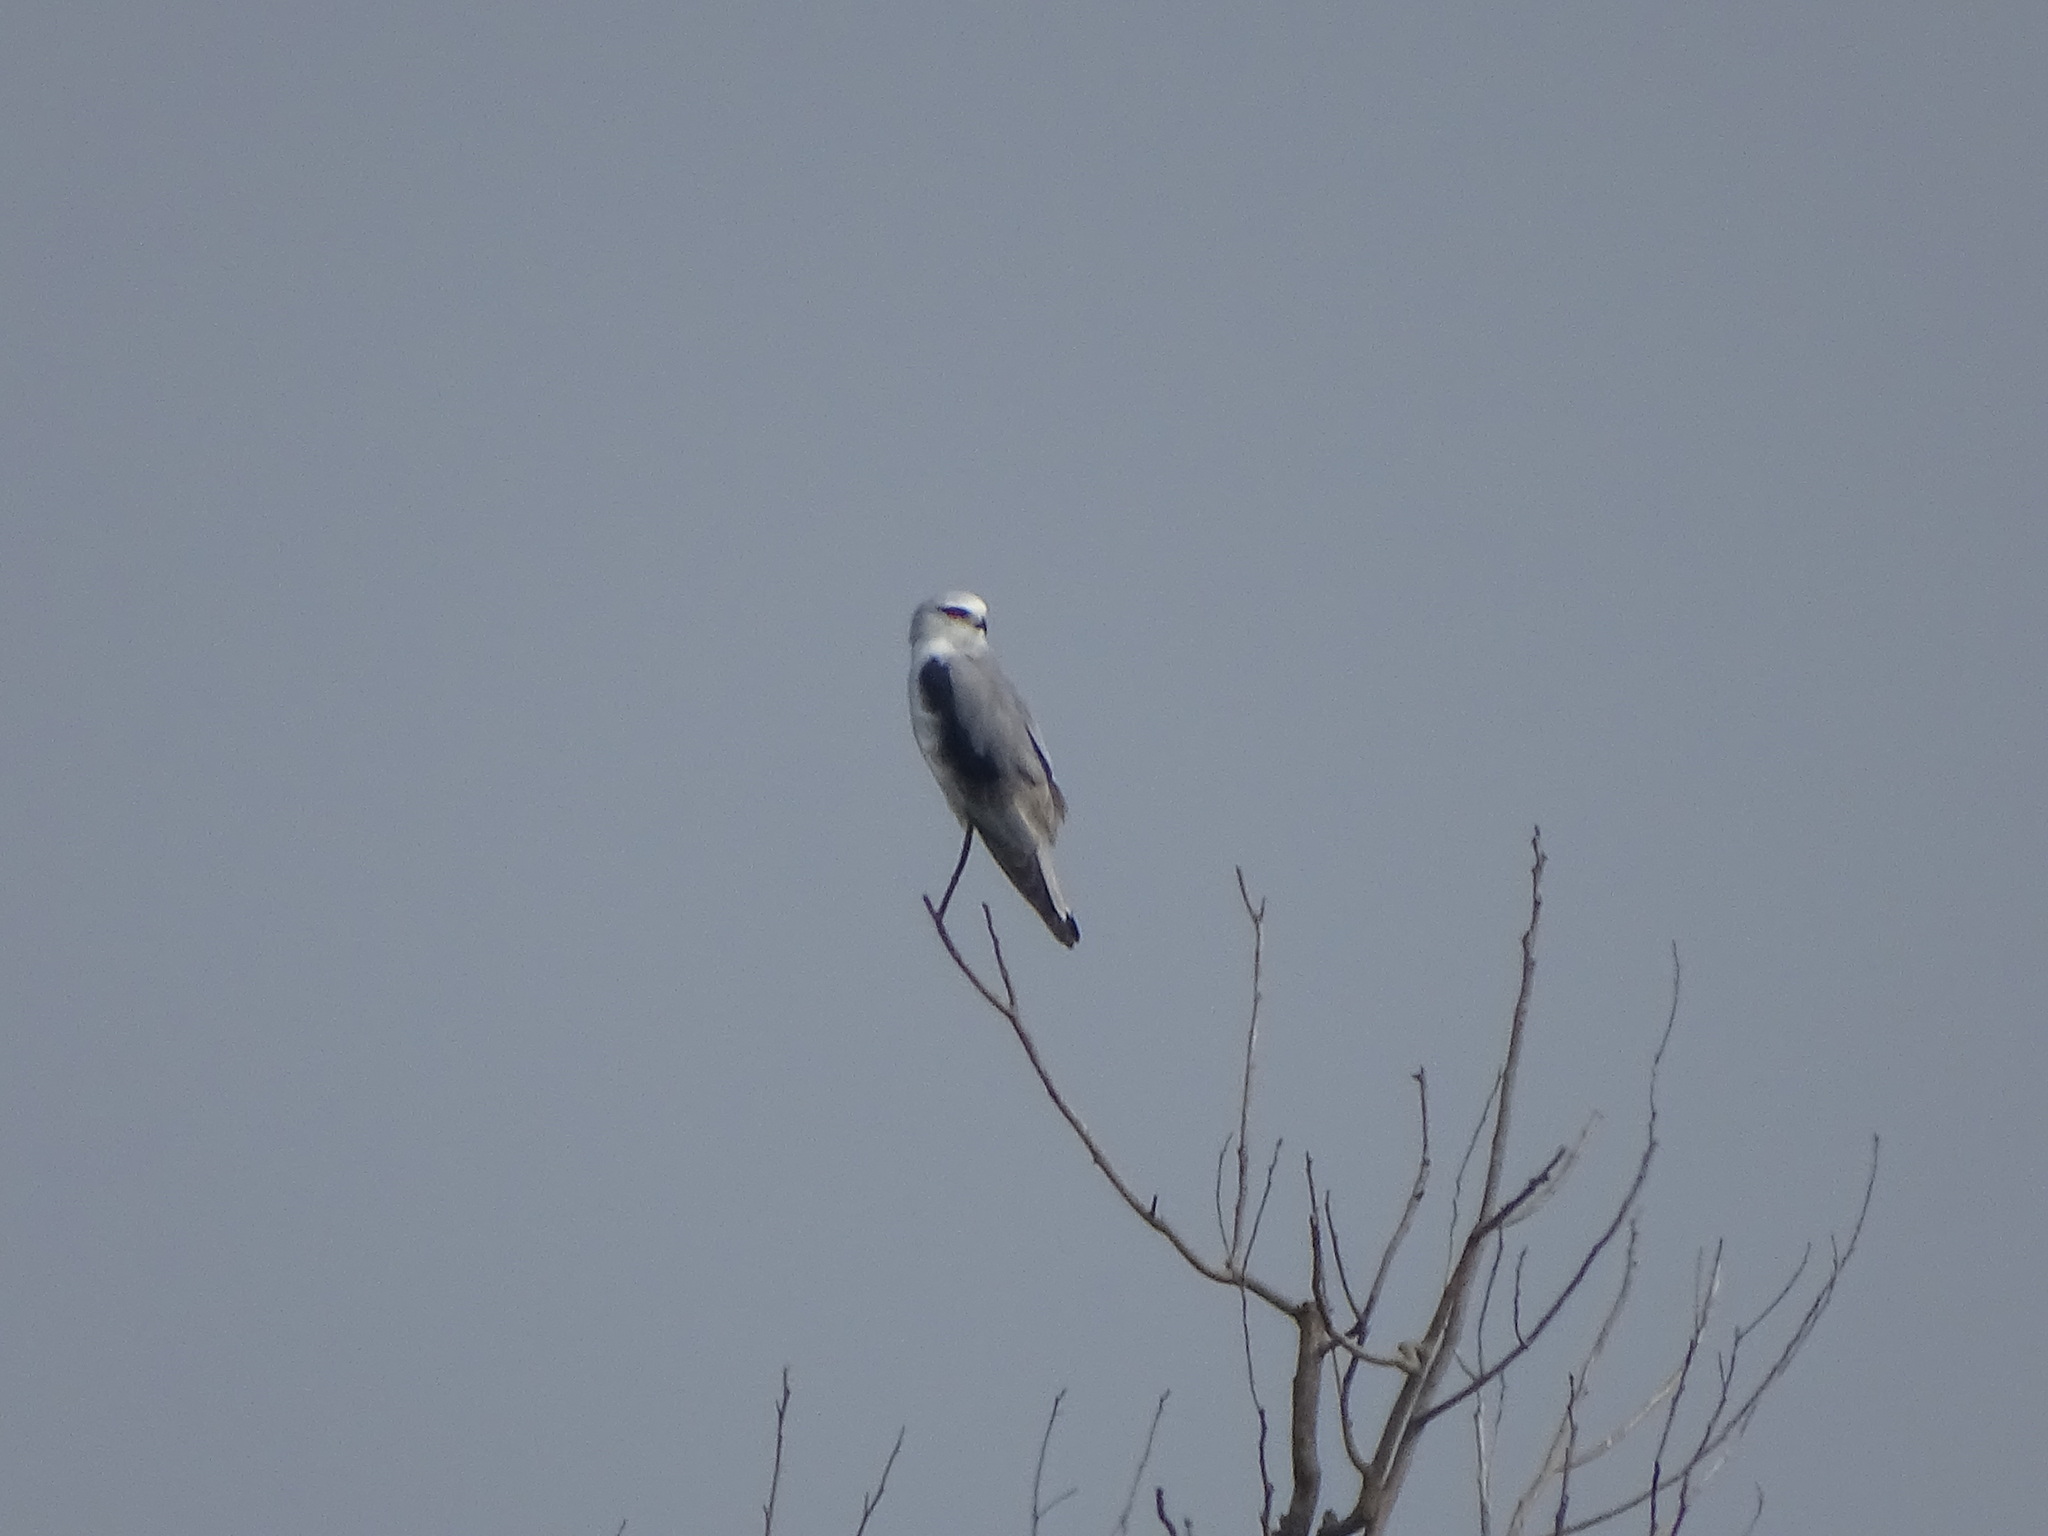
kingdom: Animalia
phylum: Chordata
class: Aves
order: Accipitriformes
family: Accipitridae
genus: Elanus
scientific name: Elanus caeruleus
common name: Black-winged kite
